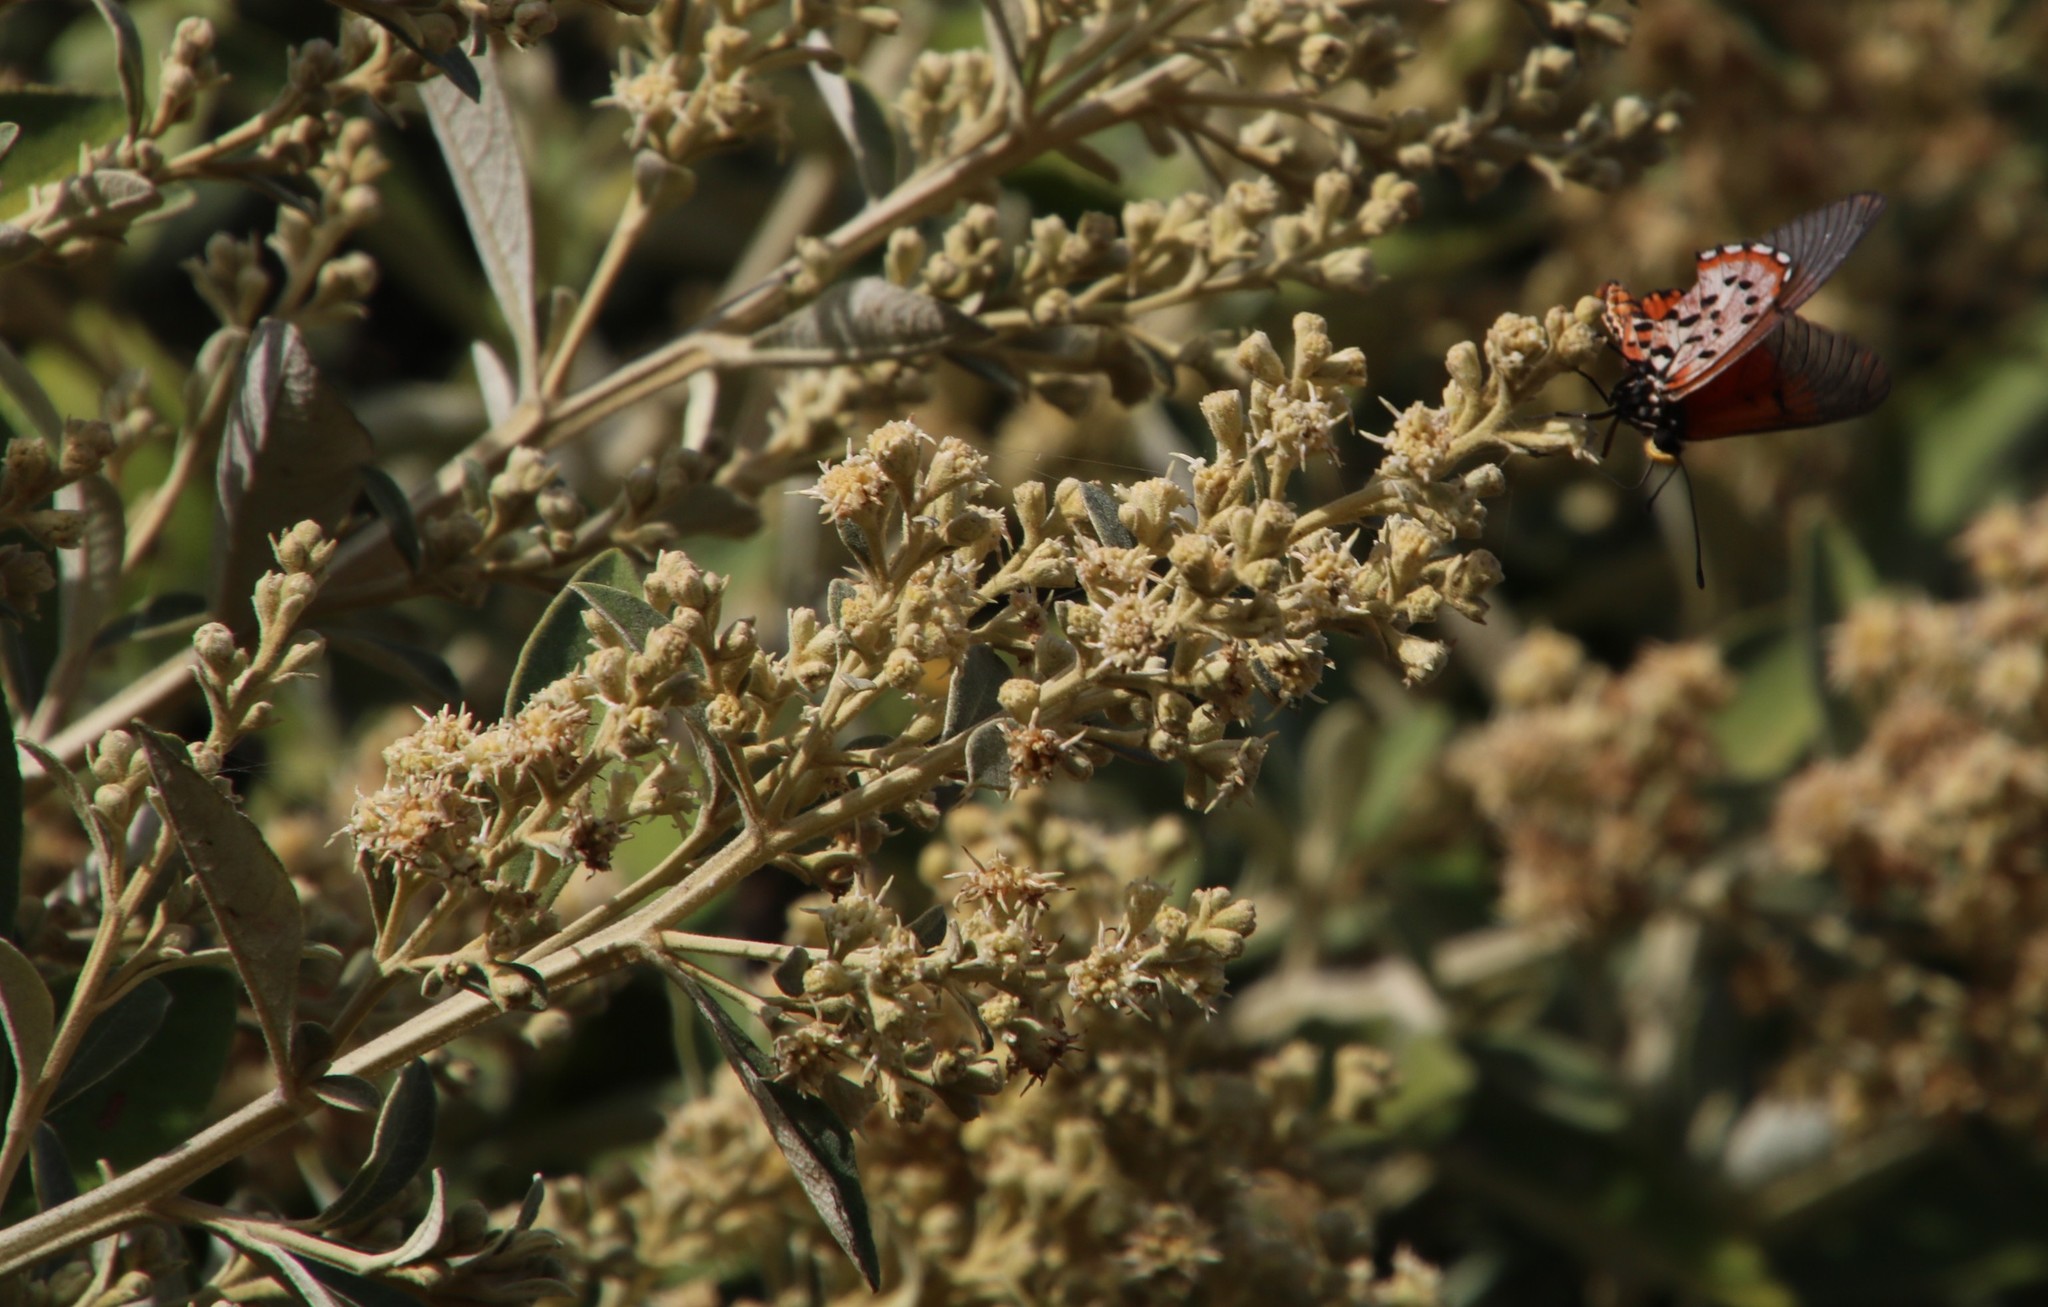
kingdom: Plantae
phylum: Tracheophyta
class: Magnoliopsida
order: Asterales
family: Asteraceae
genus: Tarchonanthus
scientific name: Tarchonanthus littoralis
